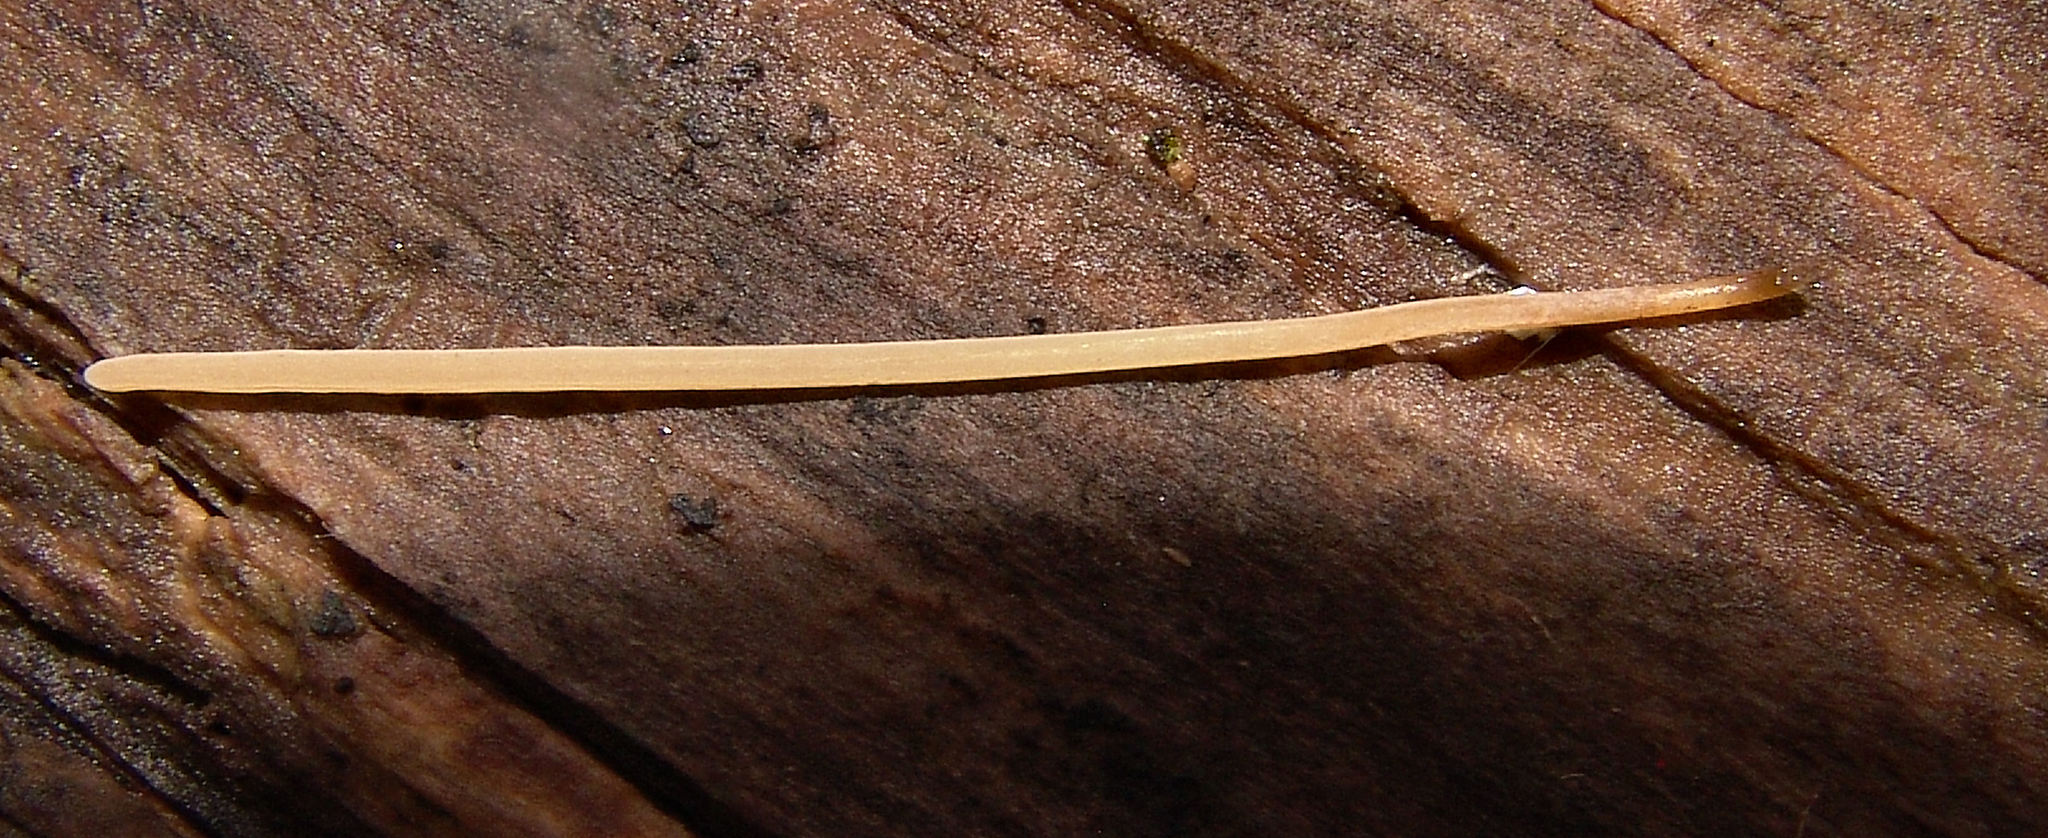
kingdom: Fungi
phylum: Basidiomycota
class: Agaricomycetes
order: Agaricales
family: Typhulaceae
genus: Typhula
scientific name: Typhula juncea
